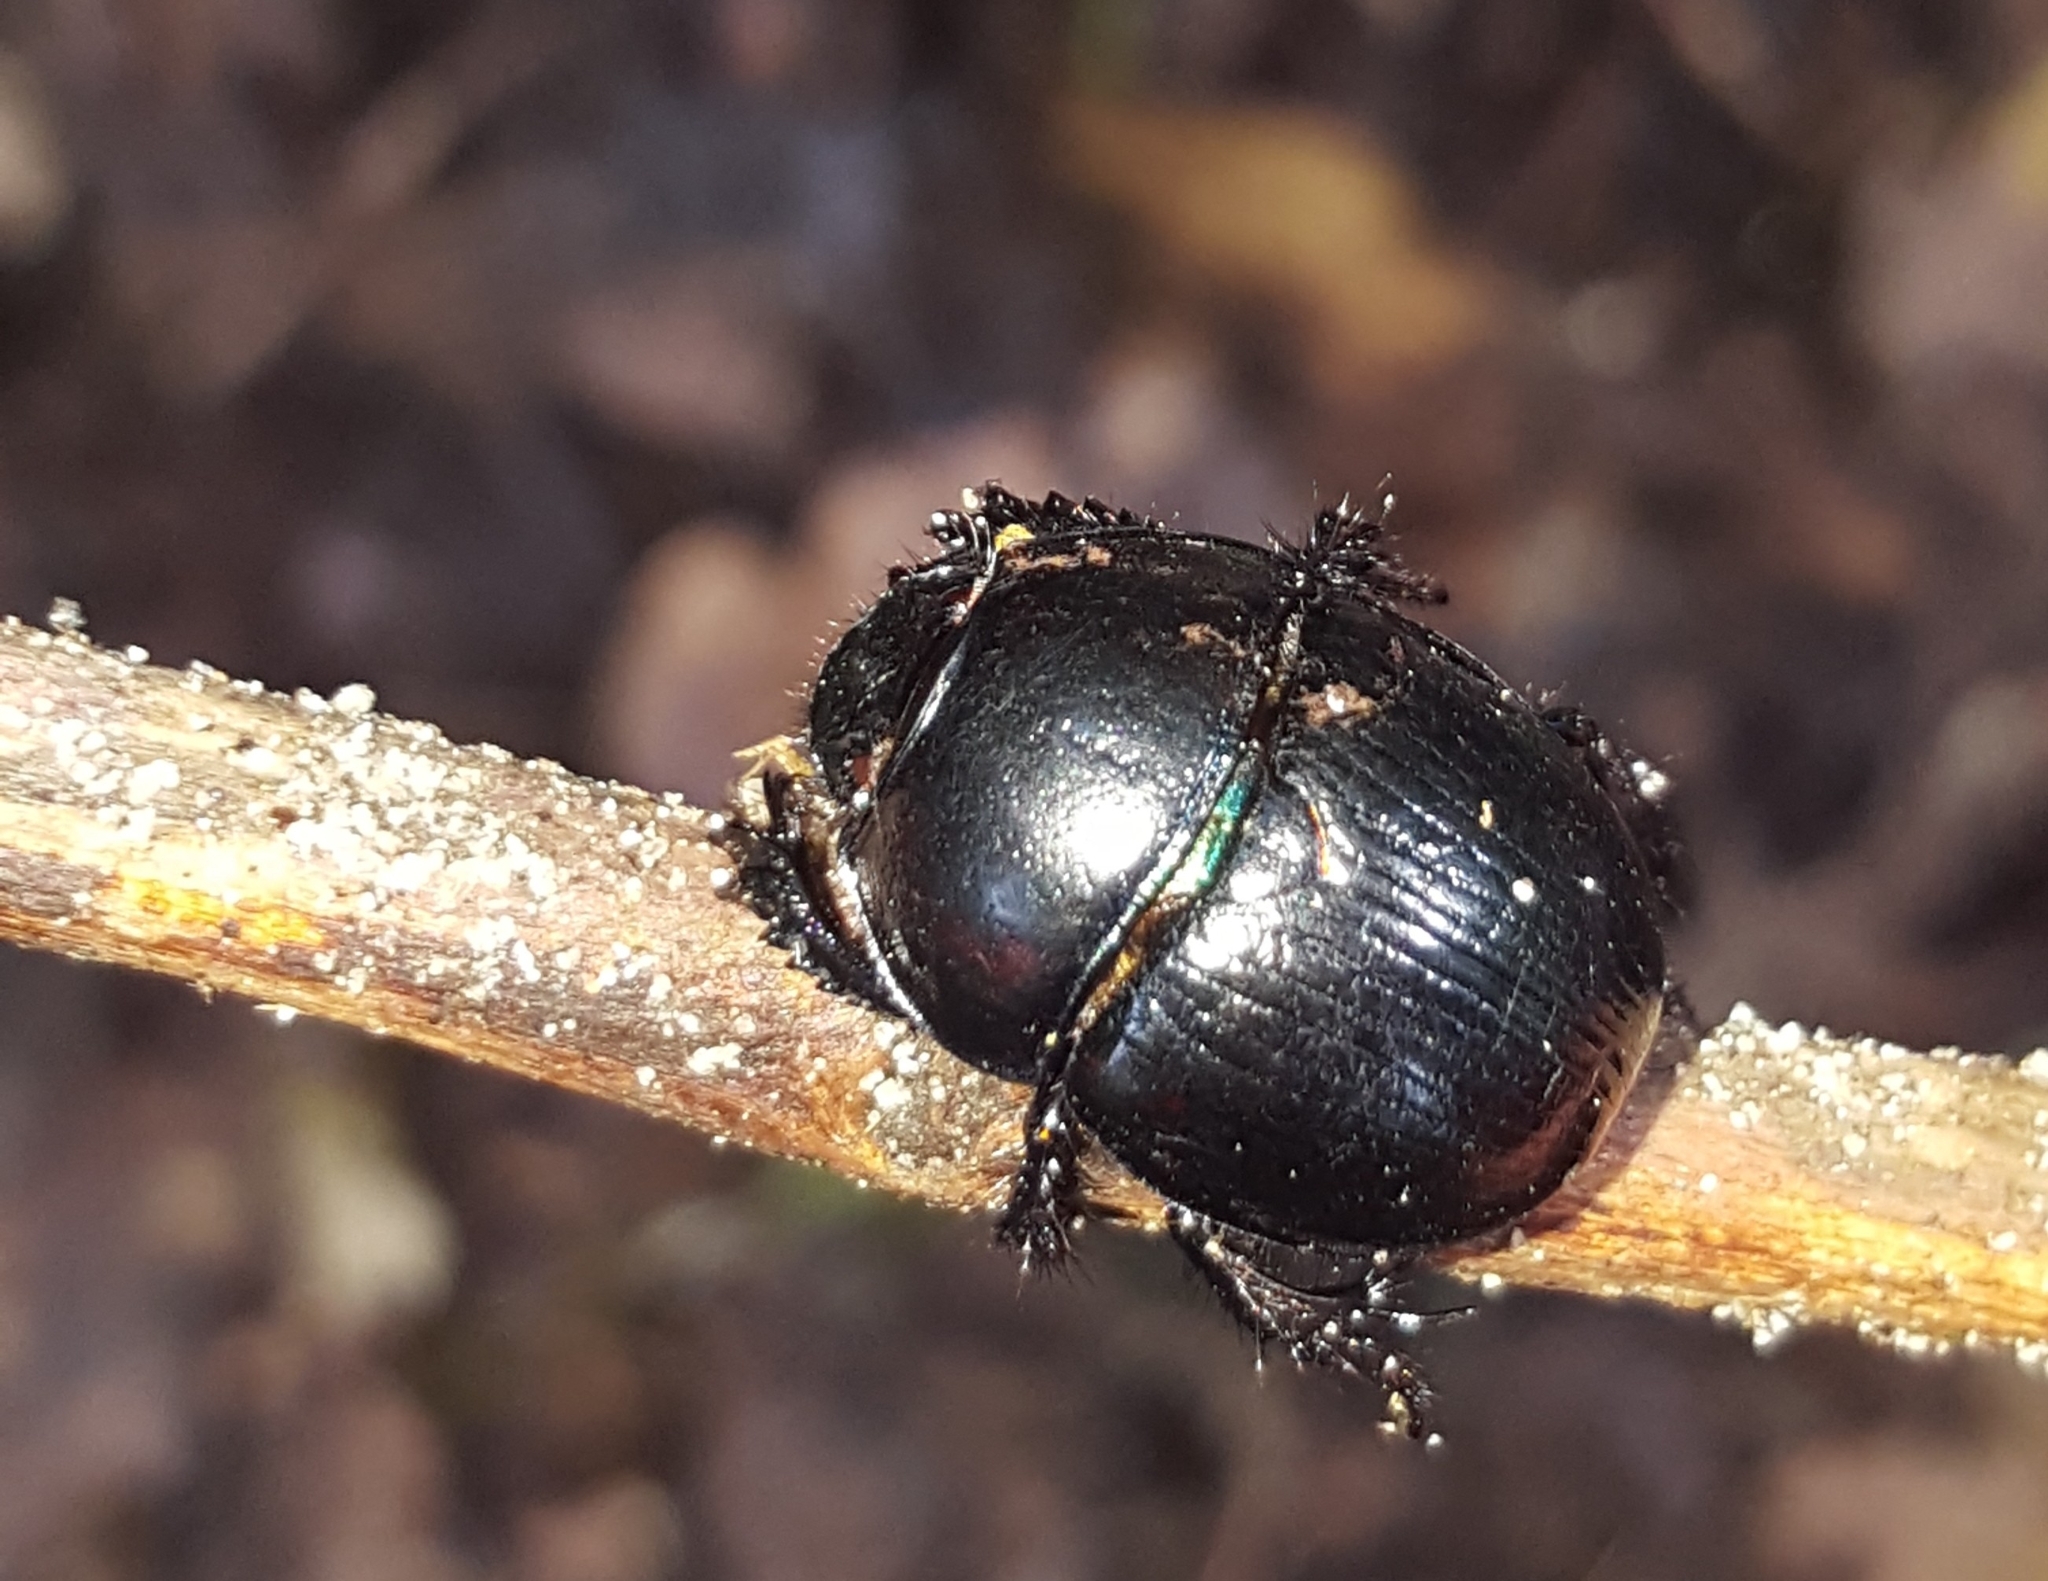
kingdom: Animalia
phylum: Arthropoda
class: Insecta
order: Coleoptera
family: Geotrupidae
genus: Anoplotrupes
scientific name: Anoplotrupes stercorosus
